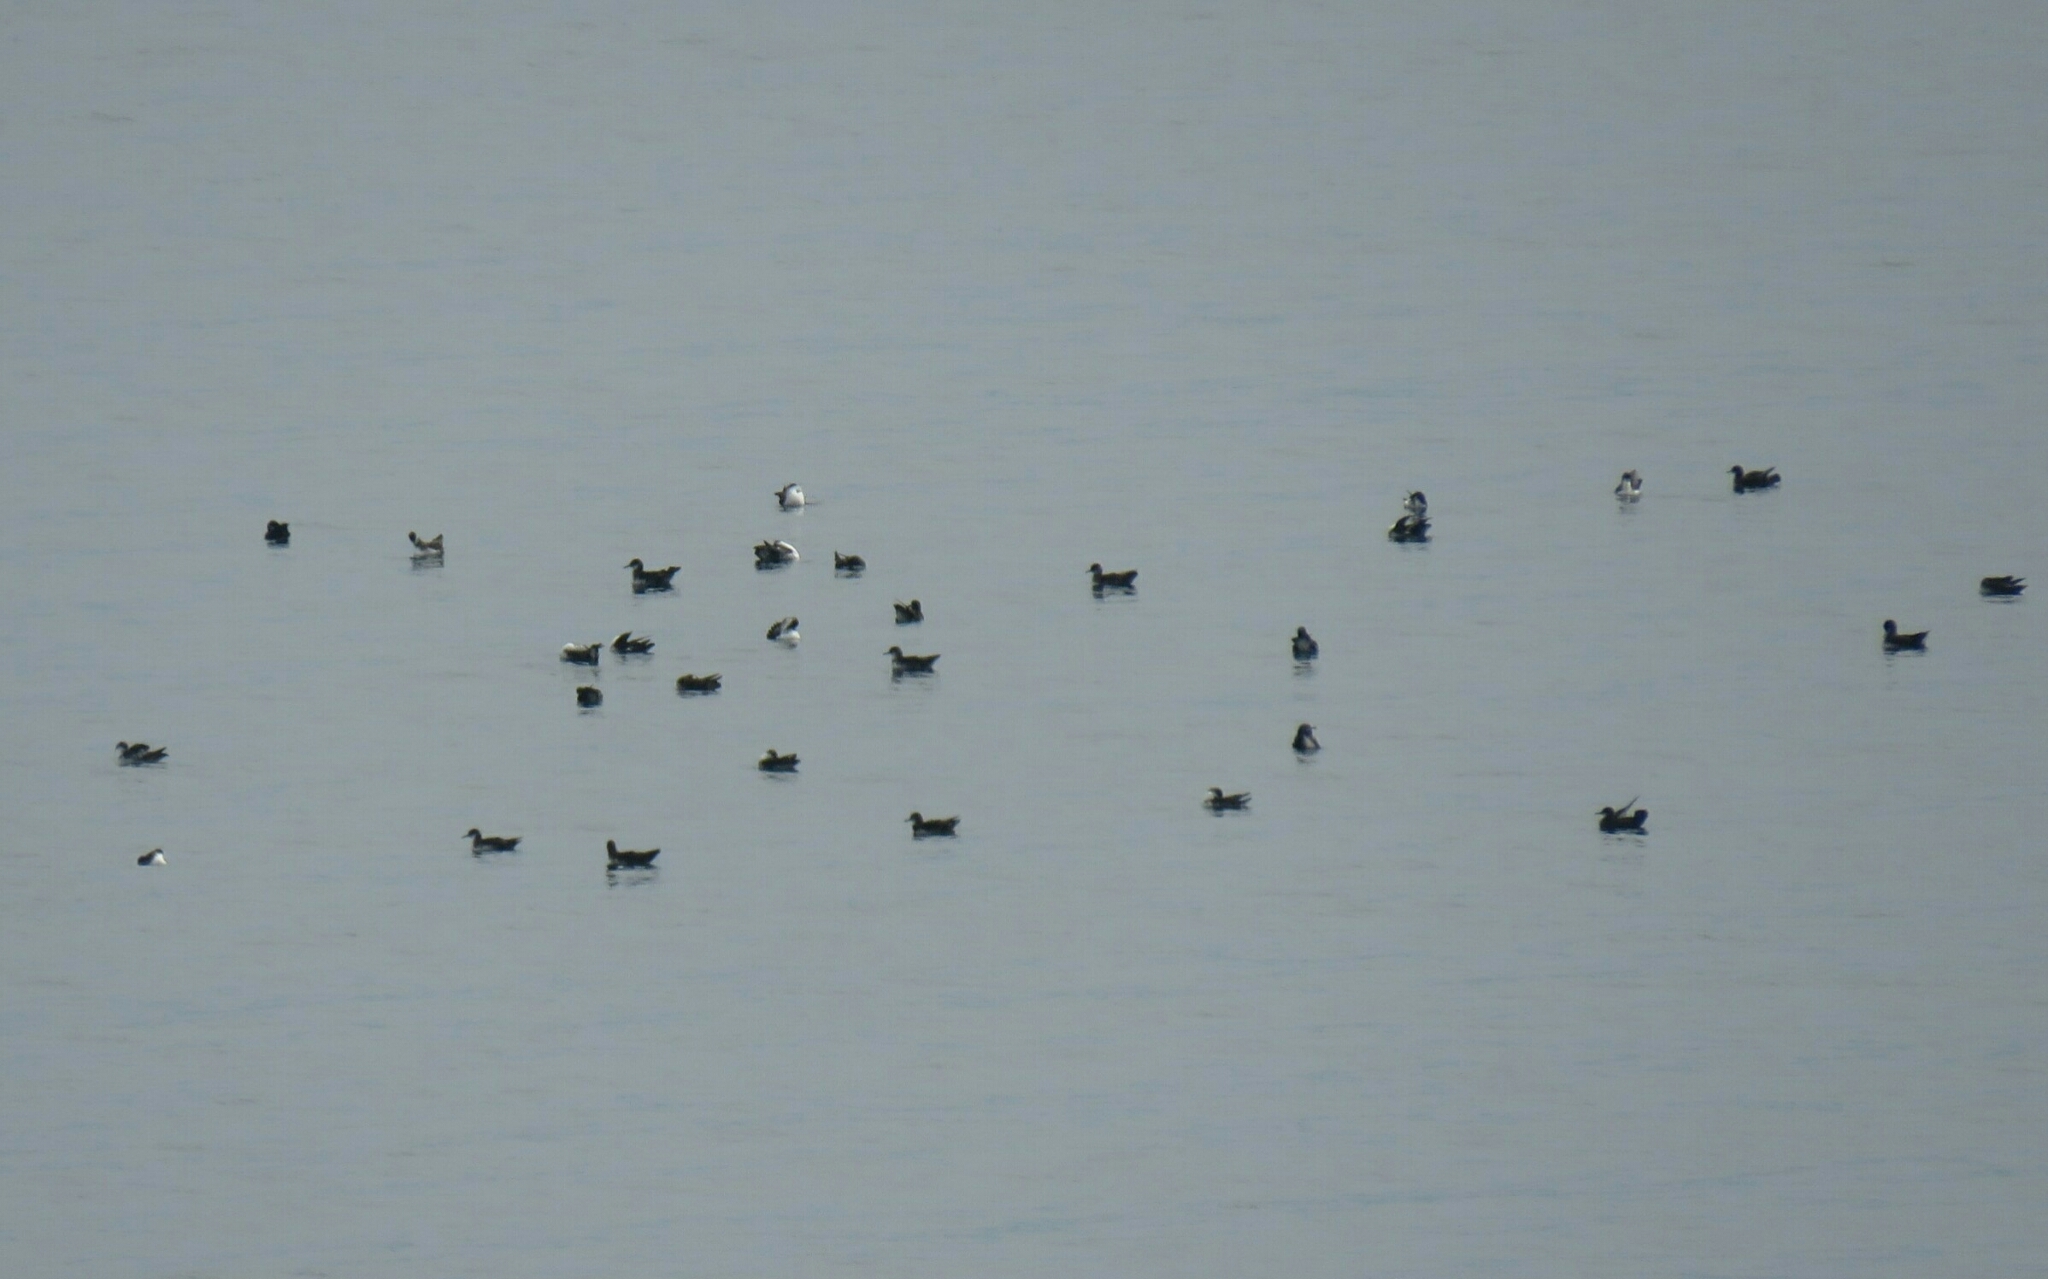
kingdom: Animalia
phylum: Chordata
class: Aves
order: Procellariiformes
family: Procellariidae
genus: Puffinus
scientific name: Puffinus yelkouan
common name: Yelkouan shearwater
